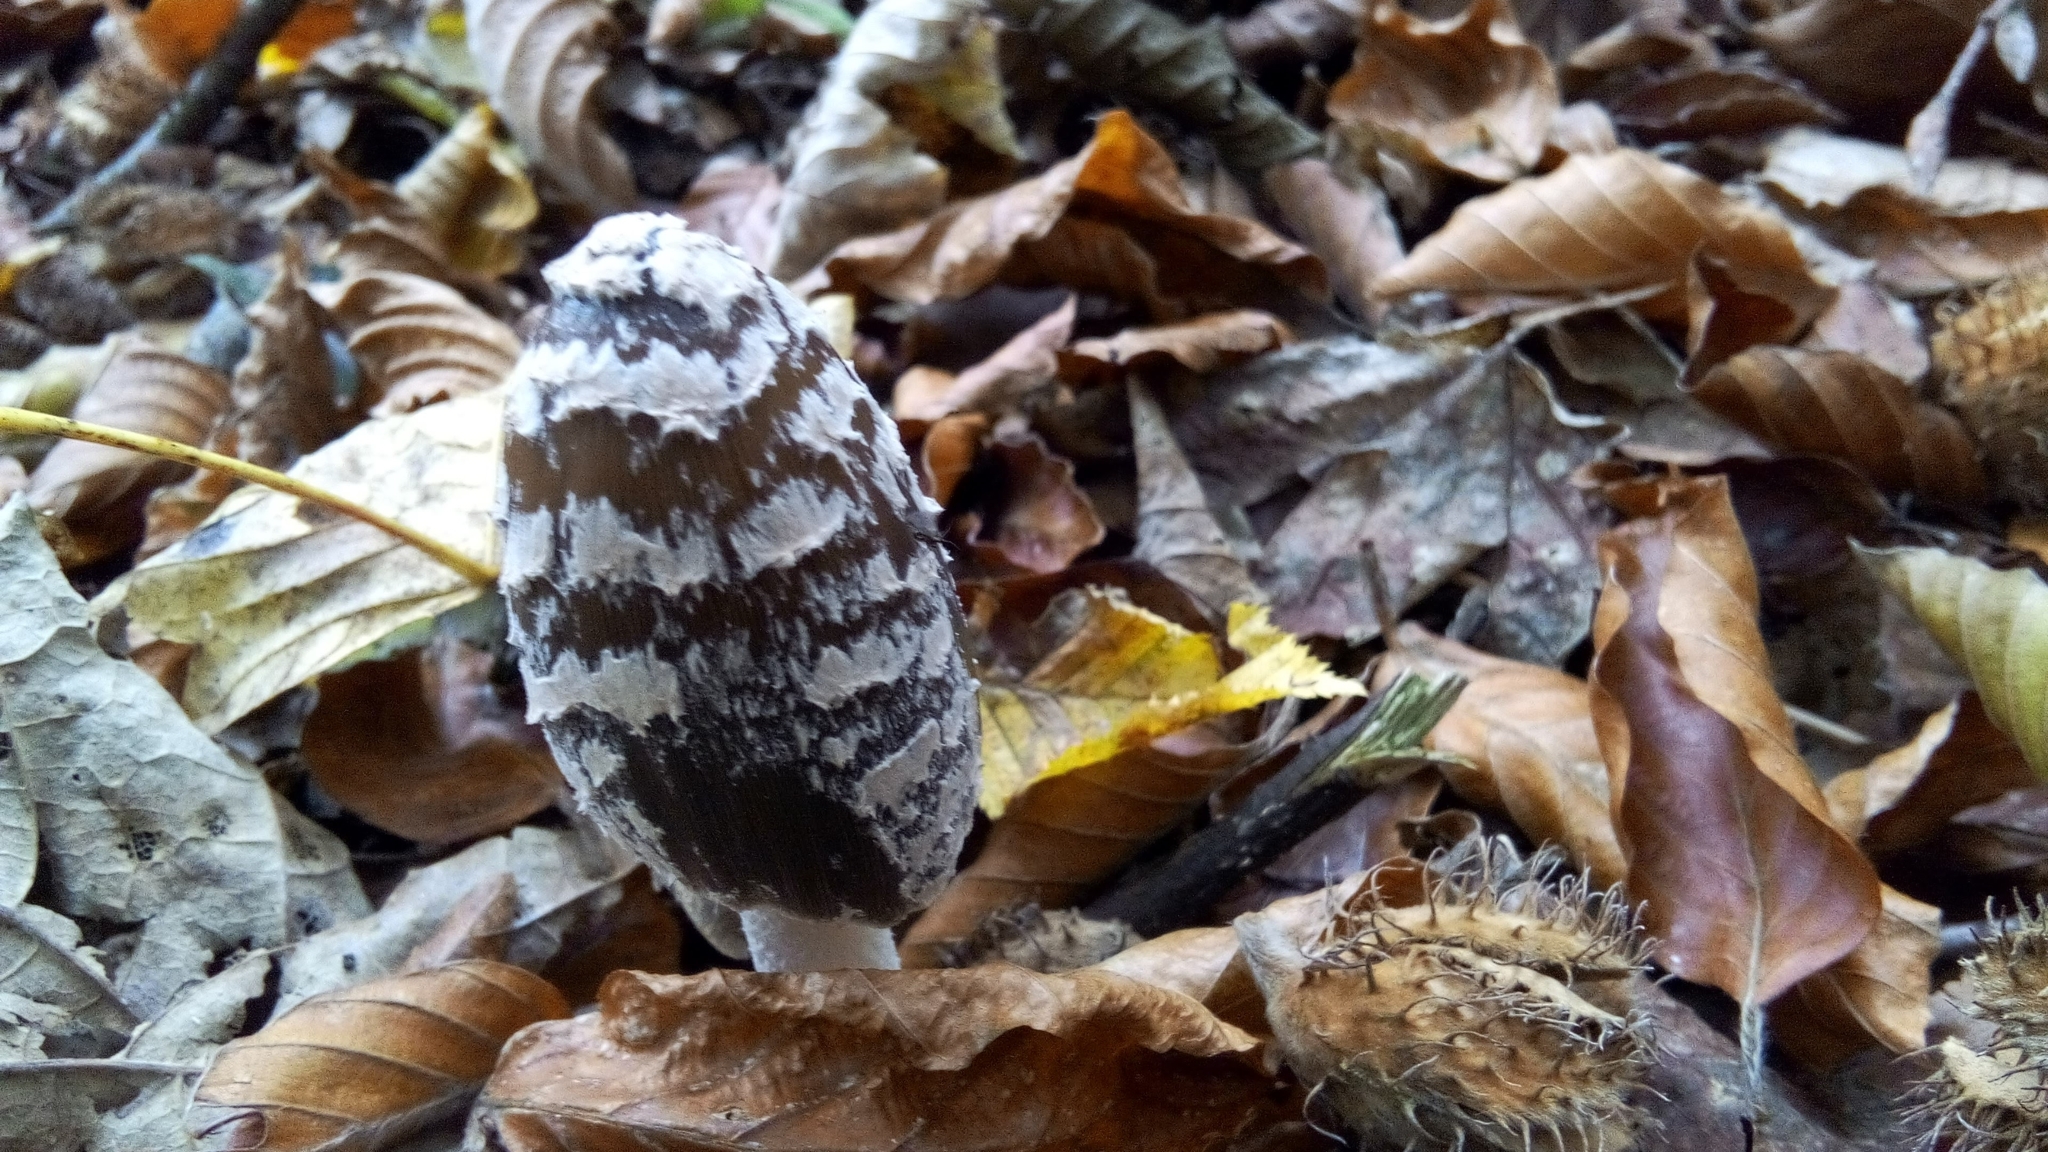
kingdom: Fungi
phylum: Basidiomycota
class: Agaricomycetes
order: Agaricales
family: Psathyrellaceae
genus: Coprinopsis
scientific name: Coprinopsis picacea
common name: Magpie inkcap
